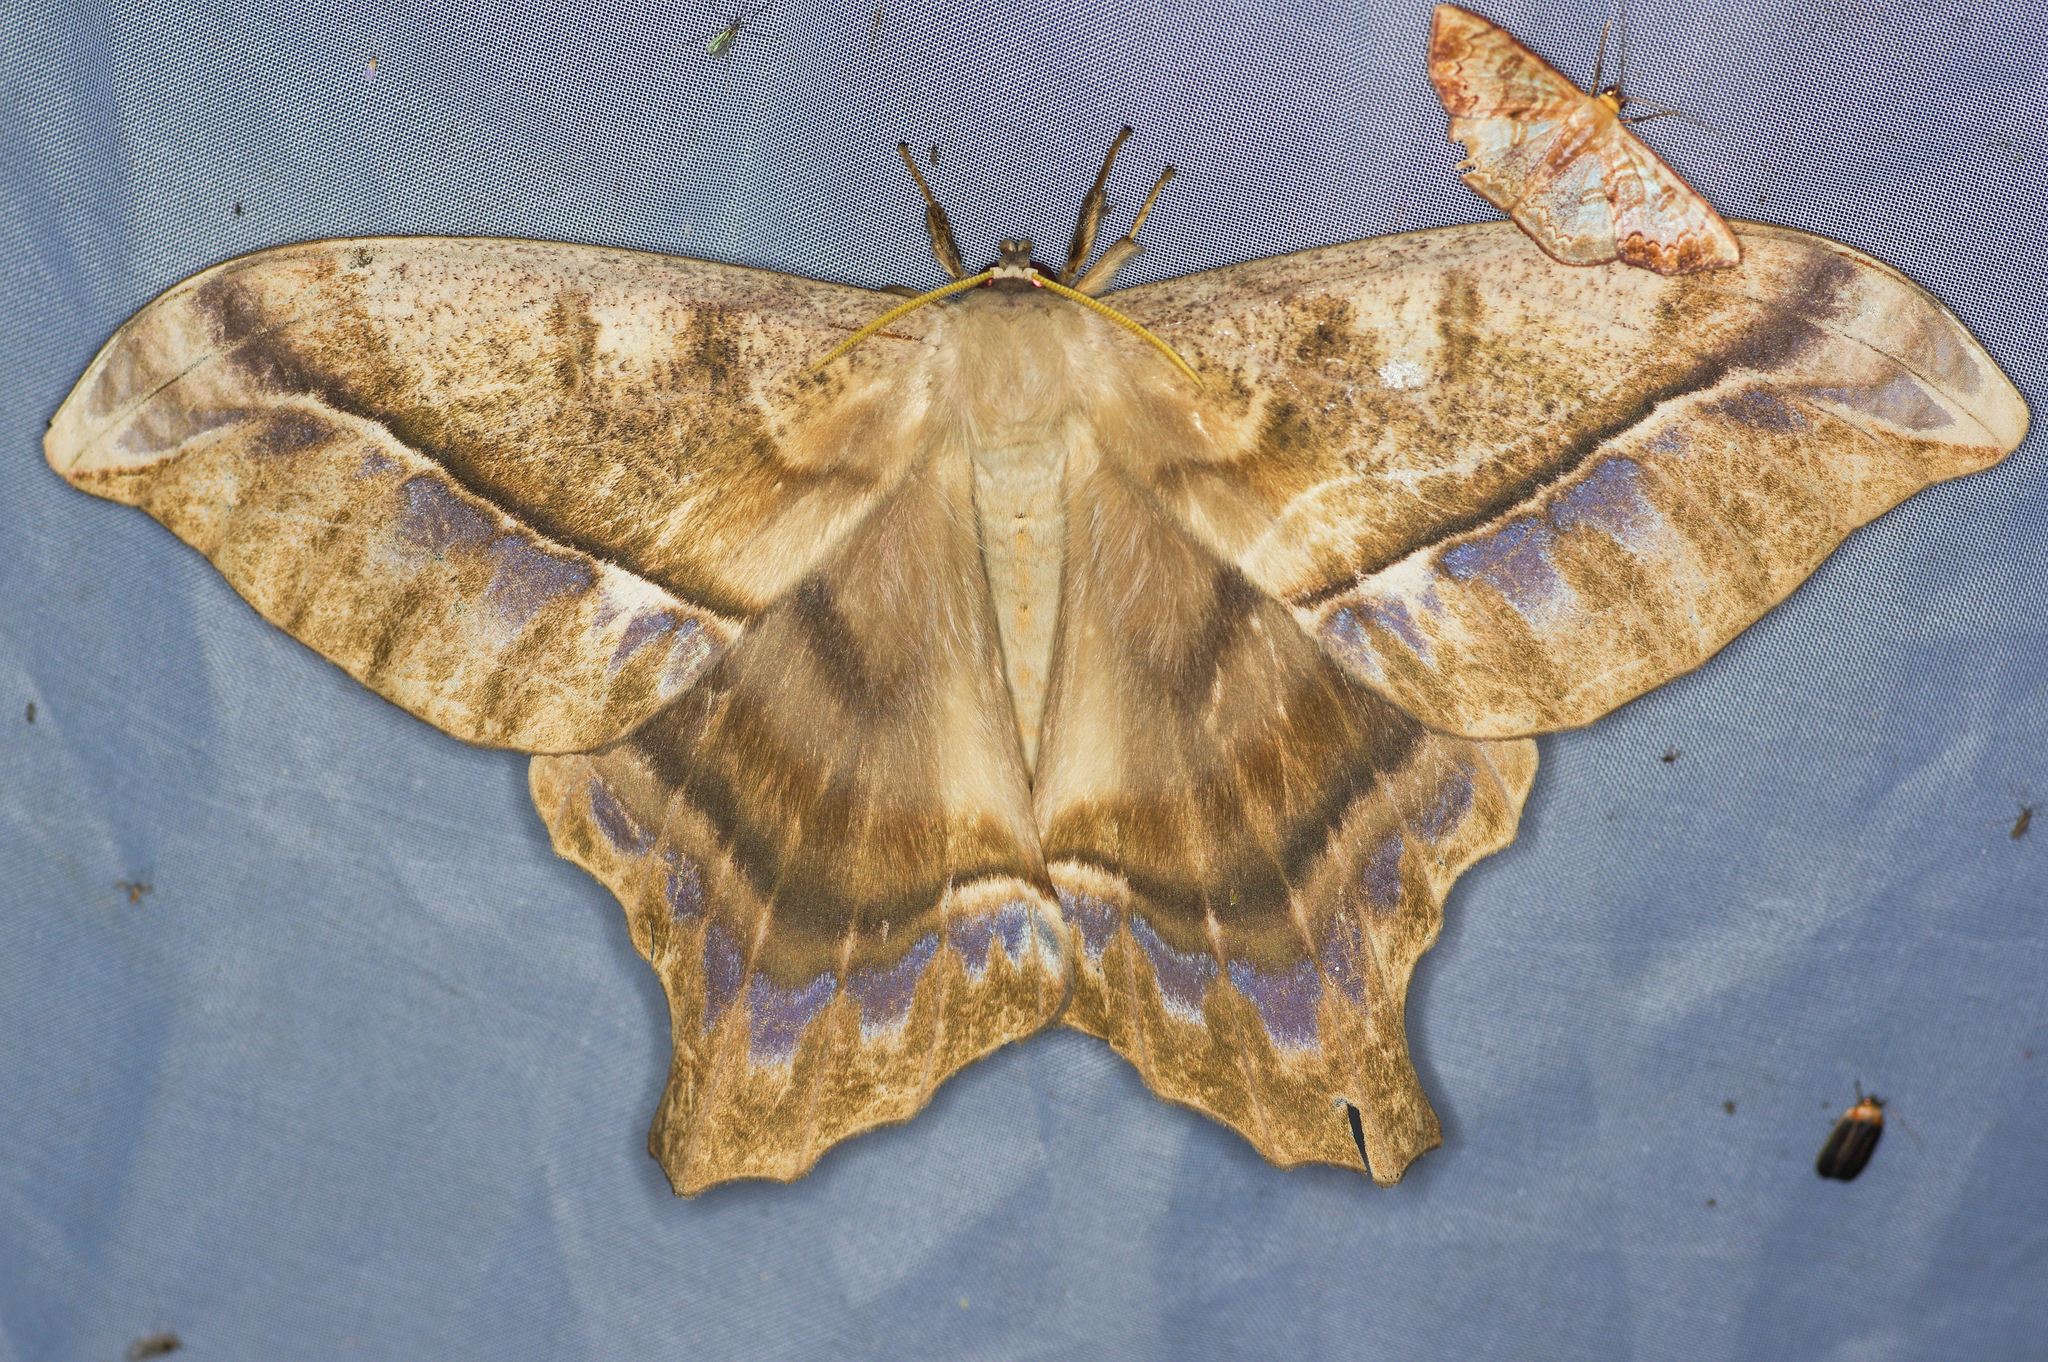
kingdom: Animalia
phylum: Arthropoda
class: Insecta
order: Lepidoptera
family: Saturniidae
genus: Arsenura
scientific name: Arsenura thomsoni
